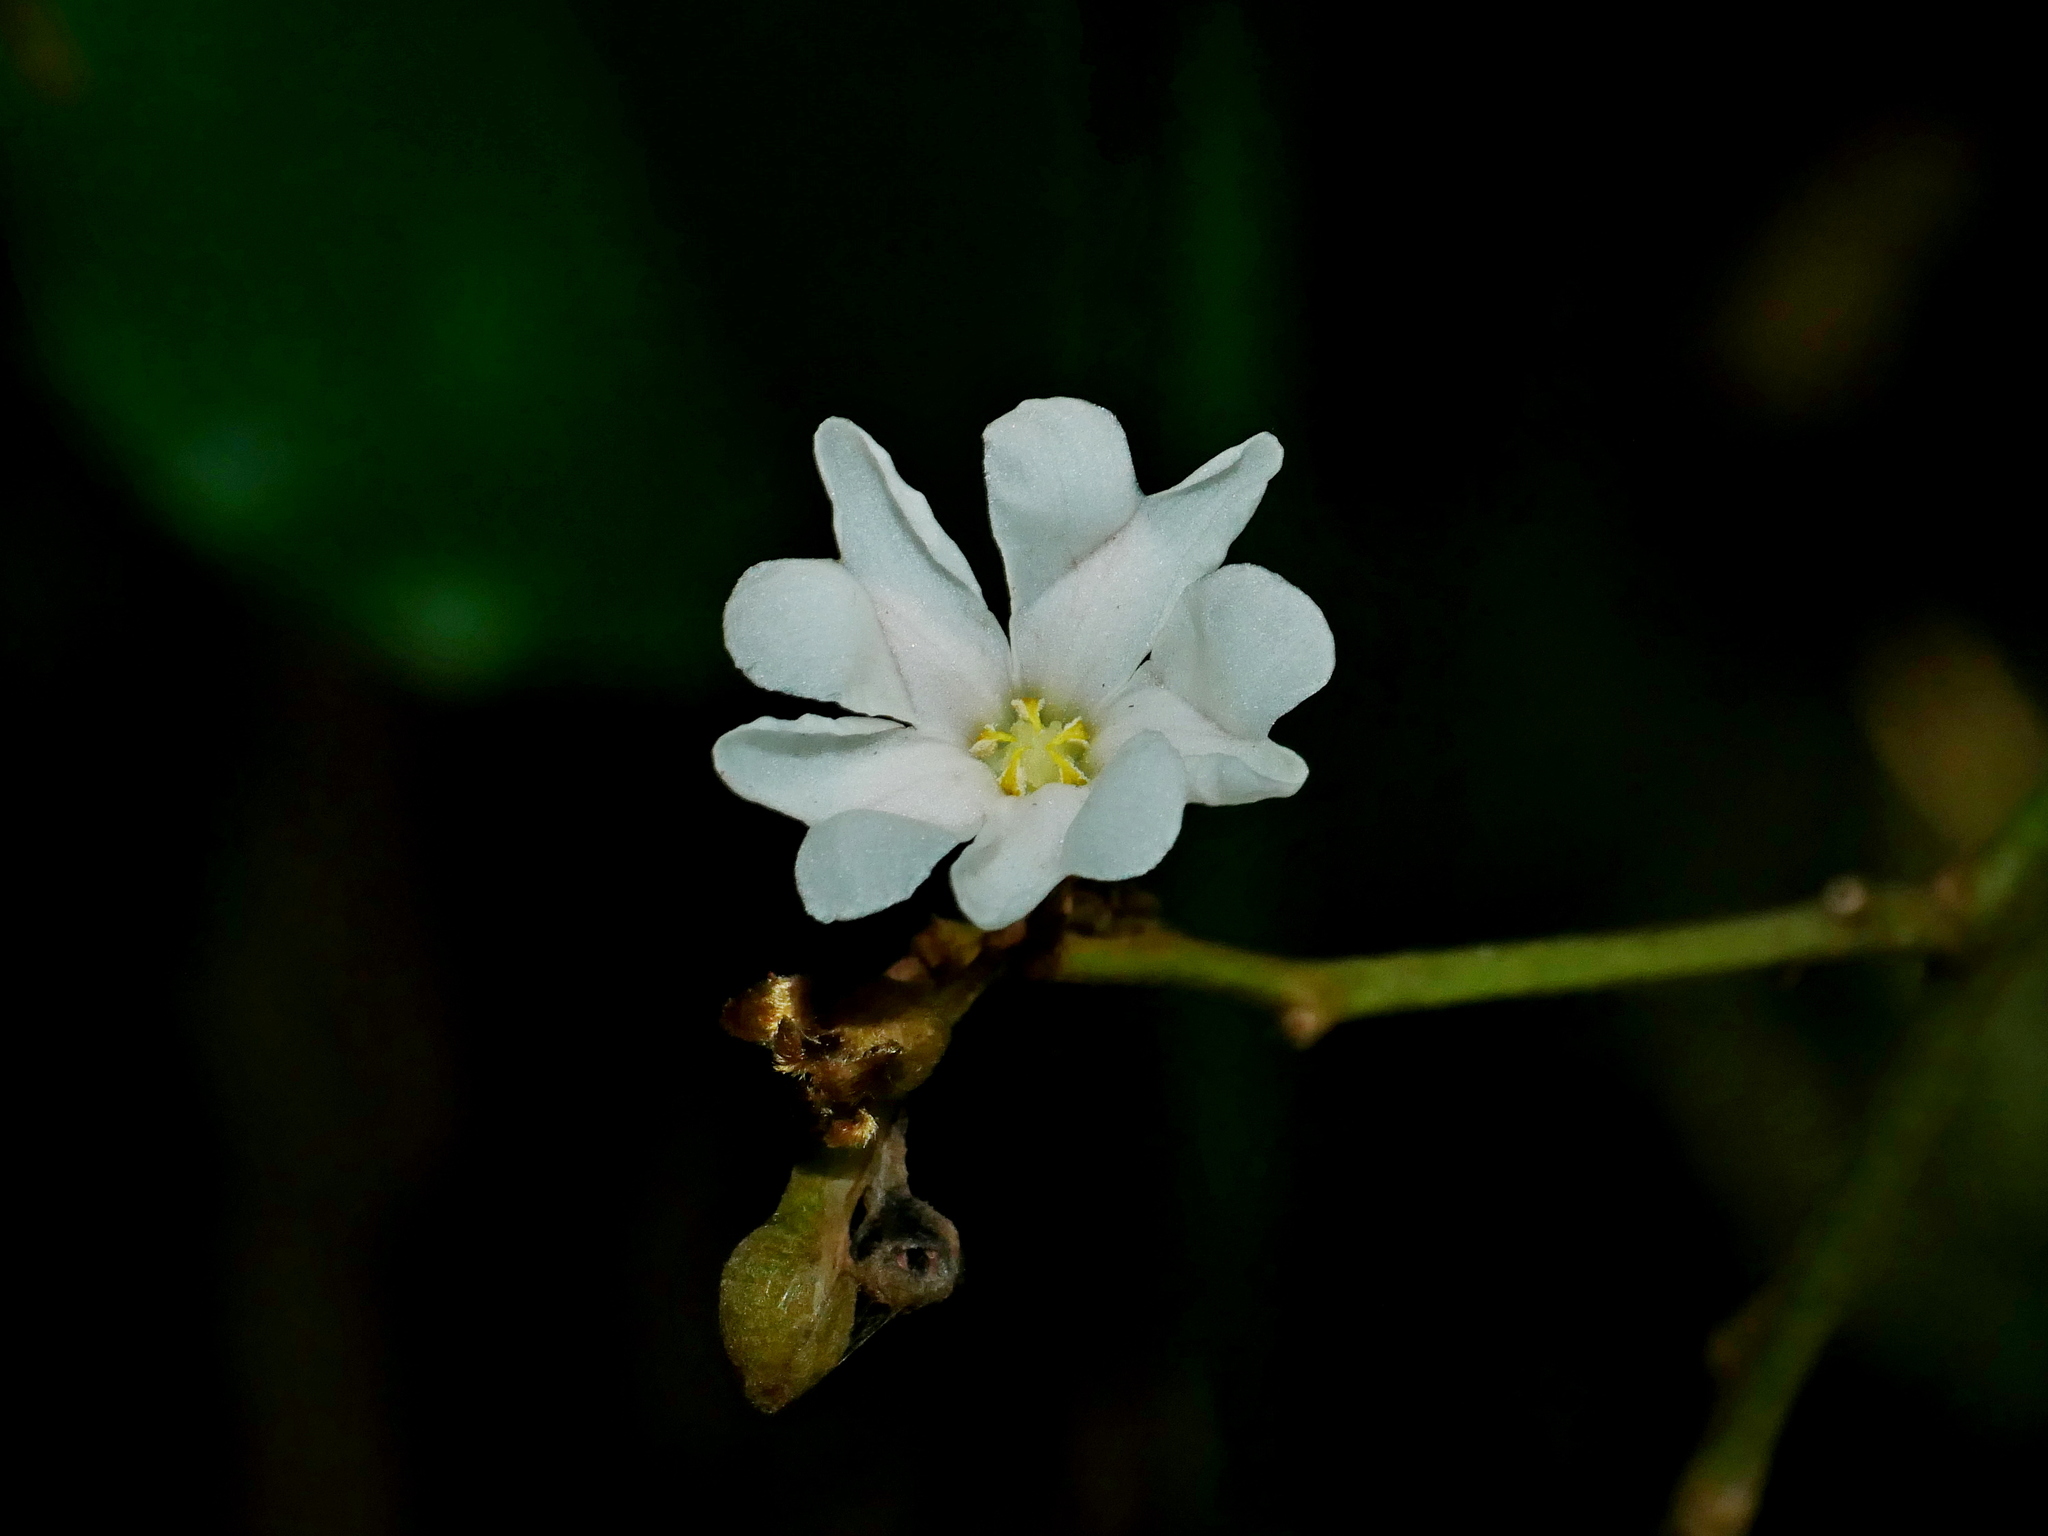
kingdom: Plantae
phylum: Tracheophyta
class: Magnoliopsida
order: Solanales
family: Convolvulaceae
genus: Erycibe
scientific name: Erycibe henryi
